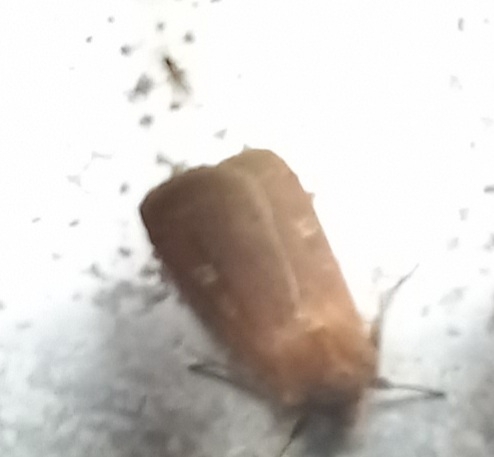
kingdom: Animalia
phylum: Arthropoda
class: Insecta
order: Lepidoptera
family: Noctuidae
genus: Xestia
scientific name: Xestia xanthographa
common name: Square-spot rustic
